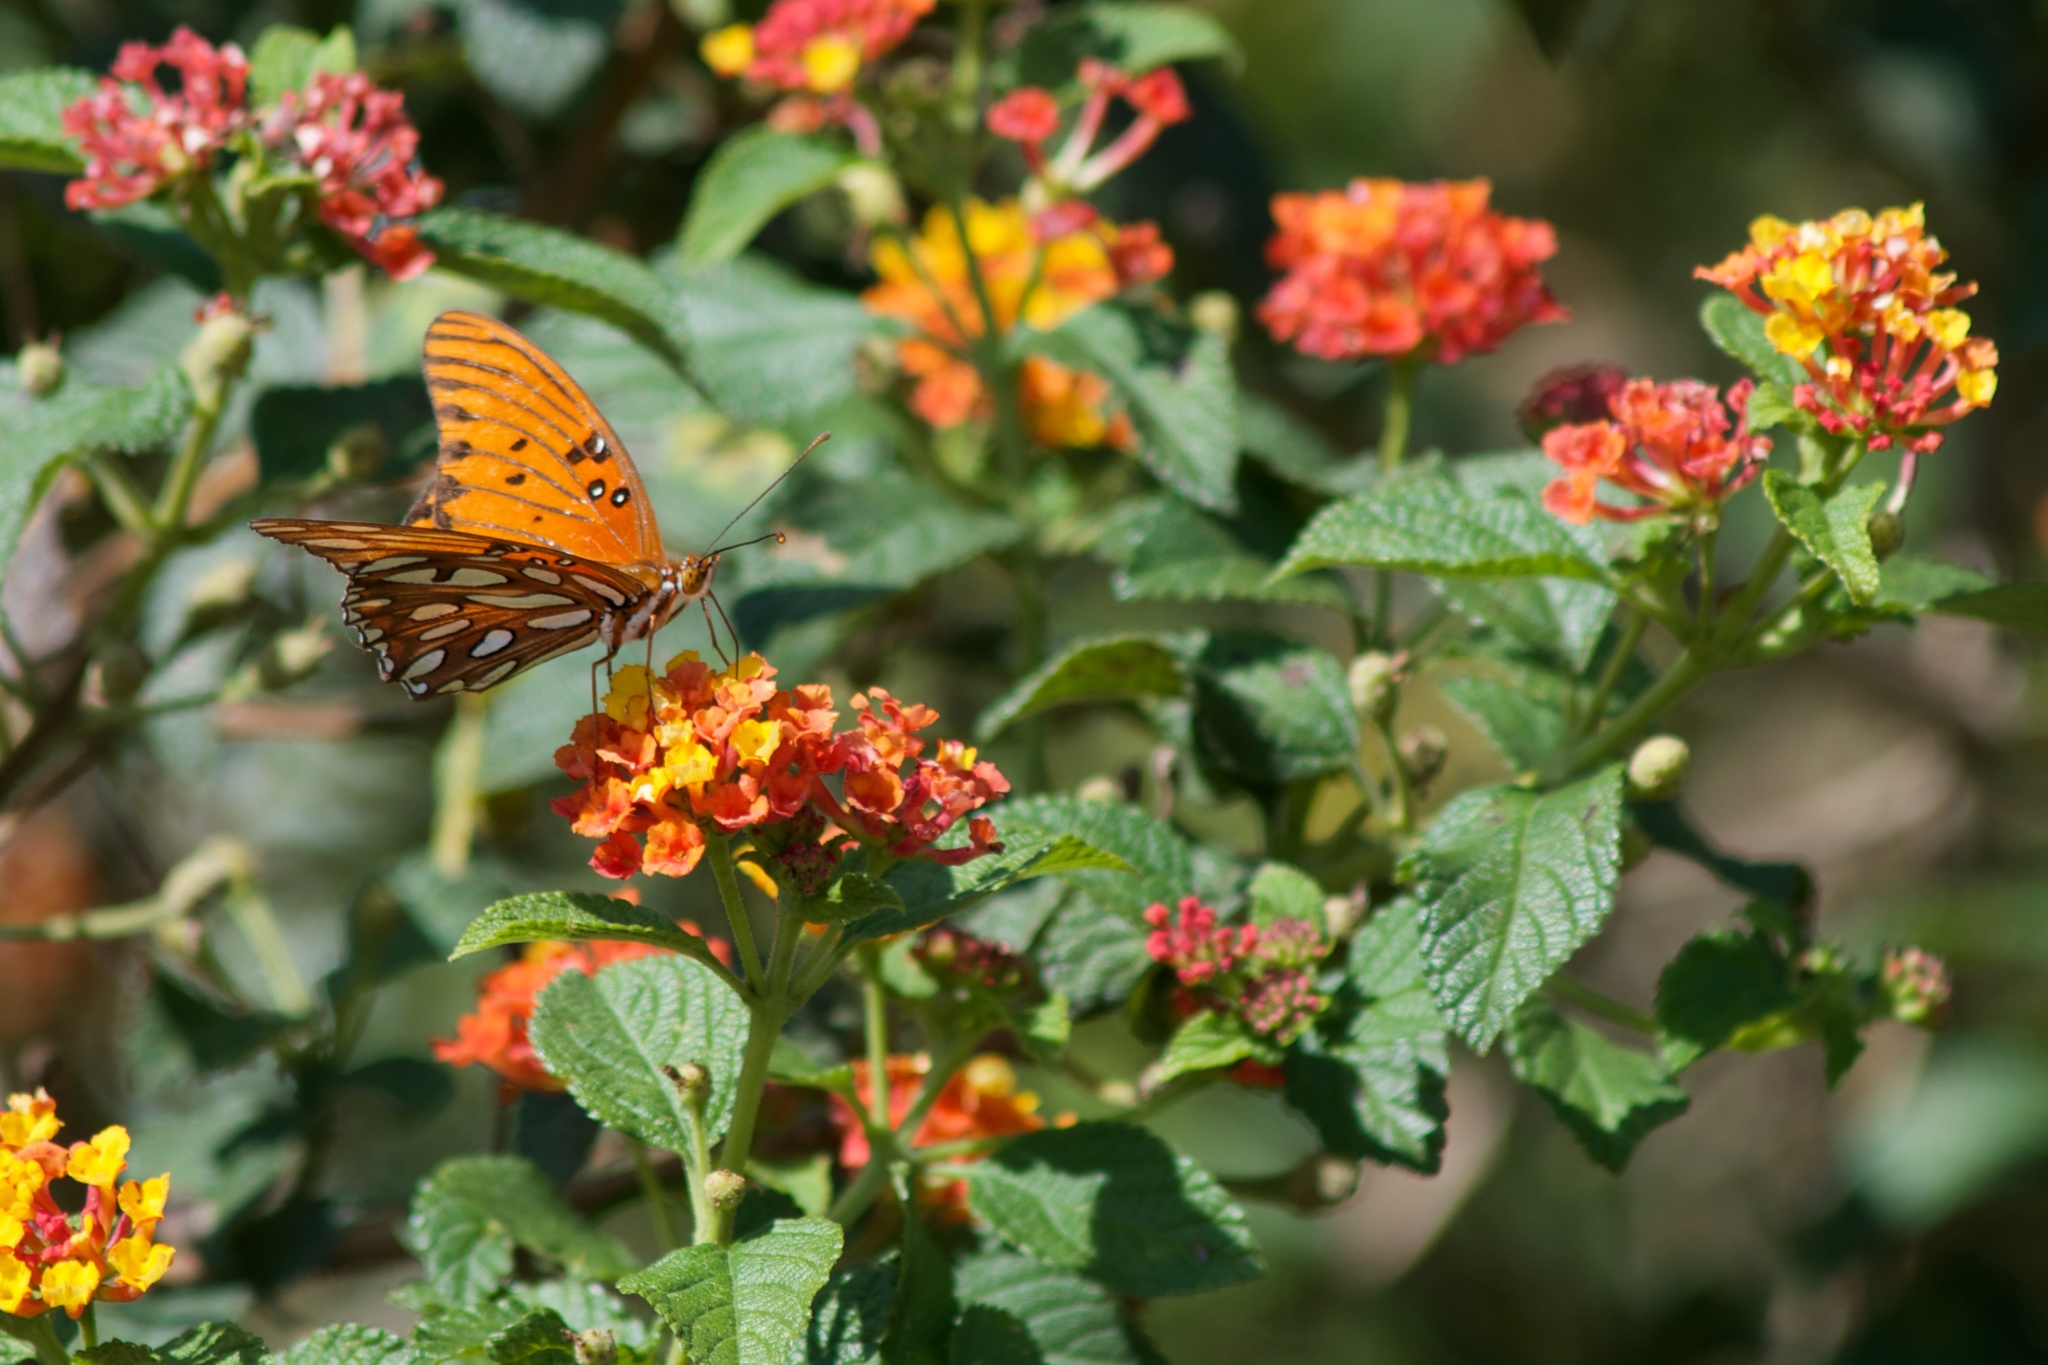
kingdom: Animalia
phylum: Arthropoda
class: Insecta
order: Lepidoptera
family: Nymphalidae
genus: Dione
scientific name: Dione vanillae
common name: Gulf fritillary
